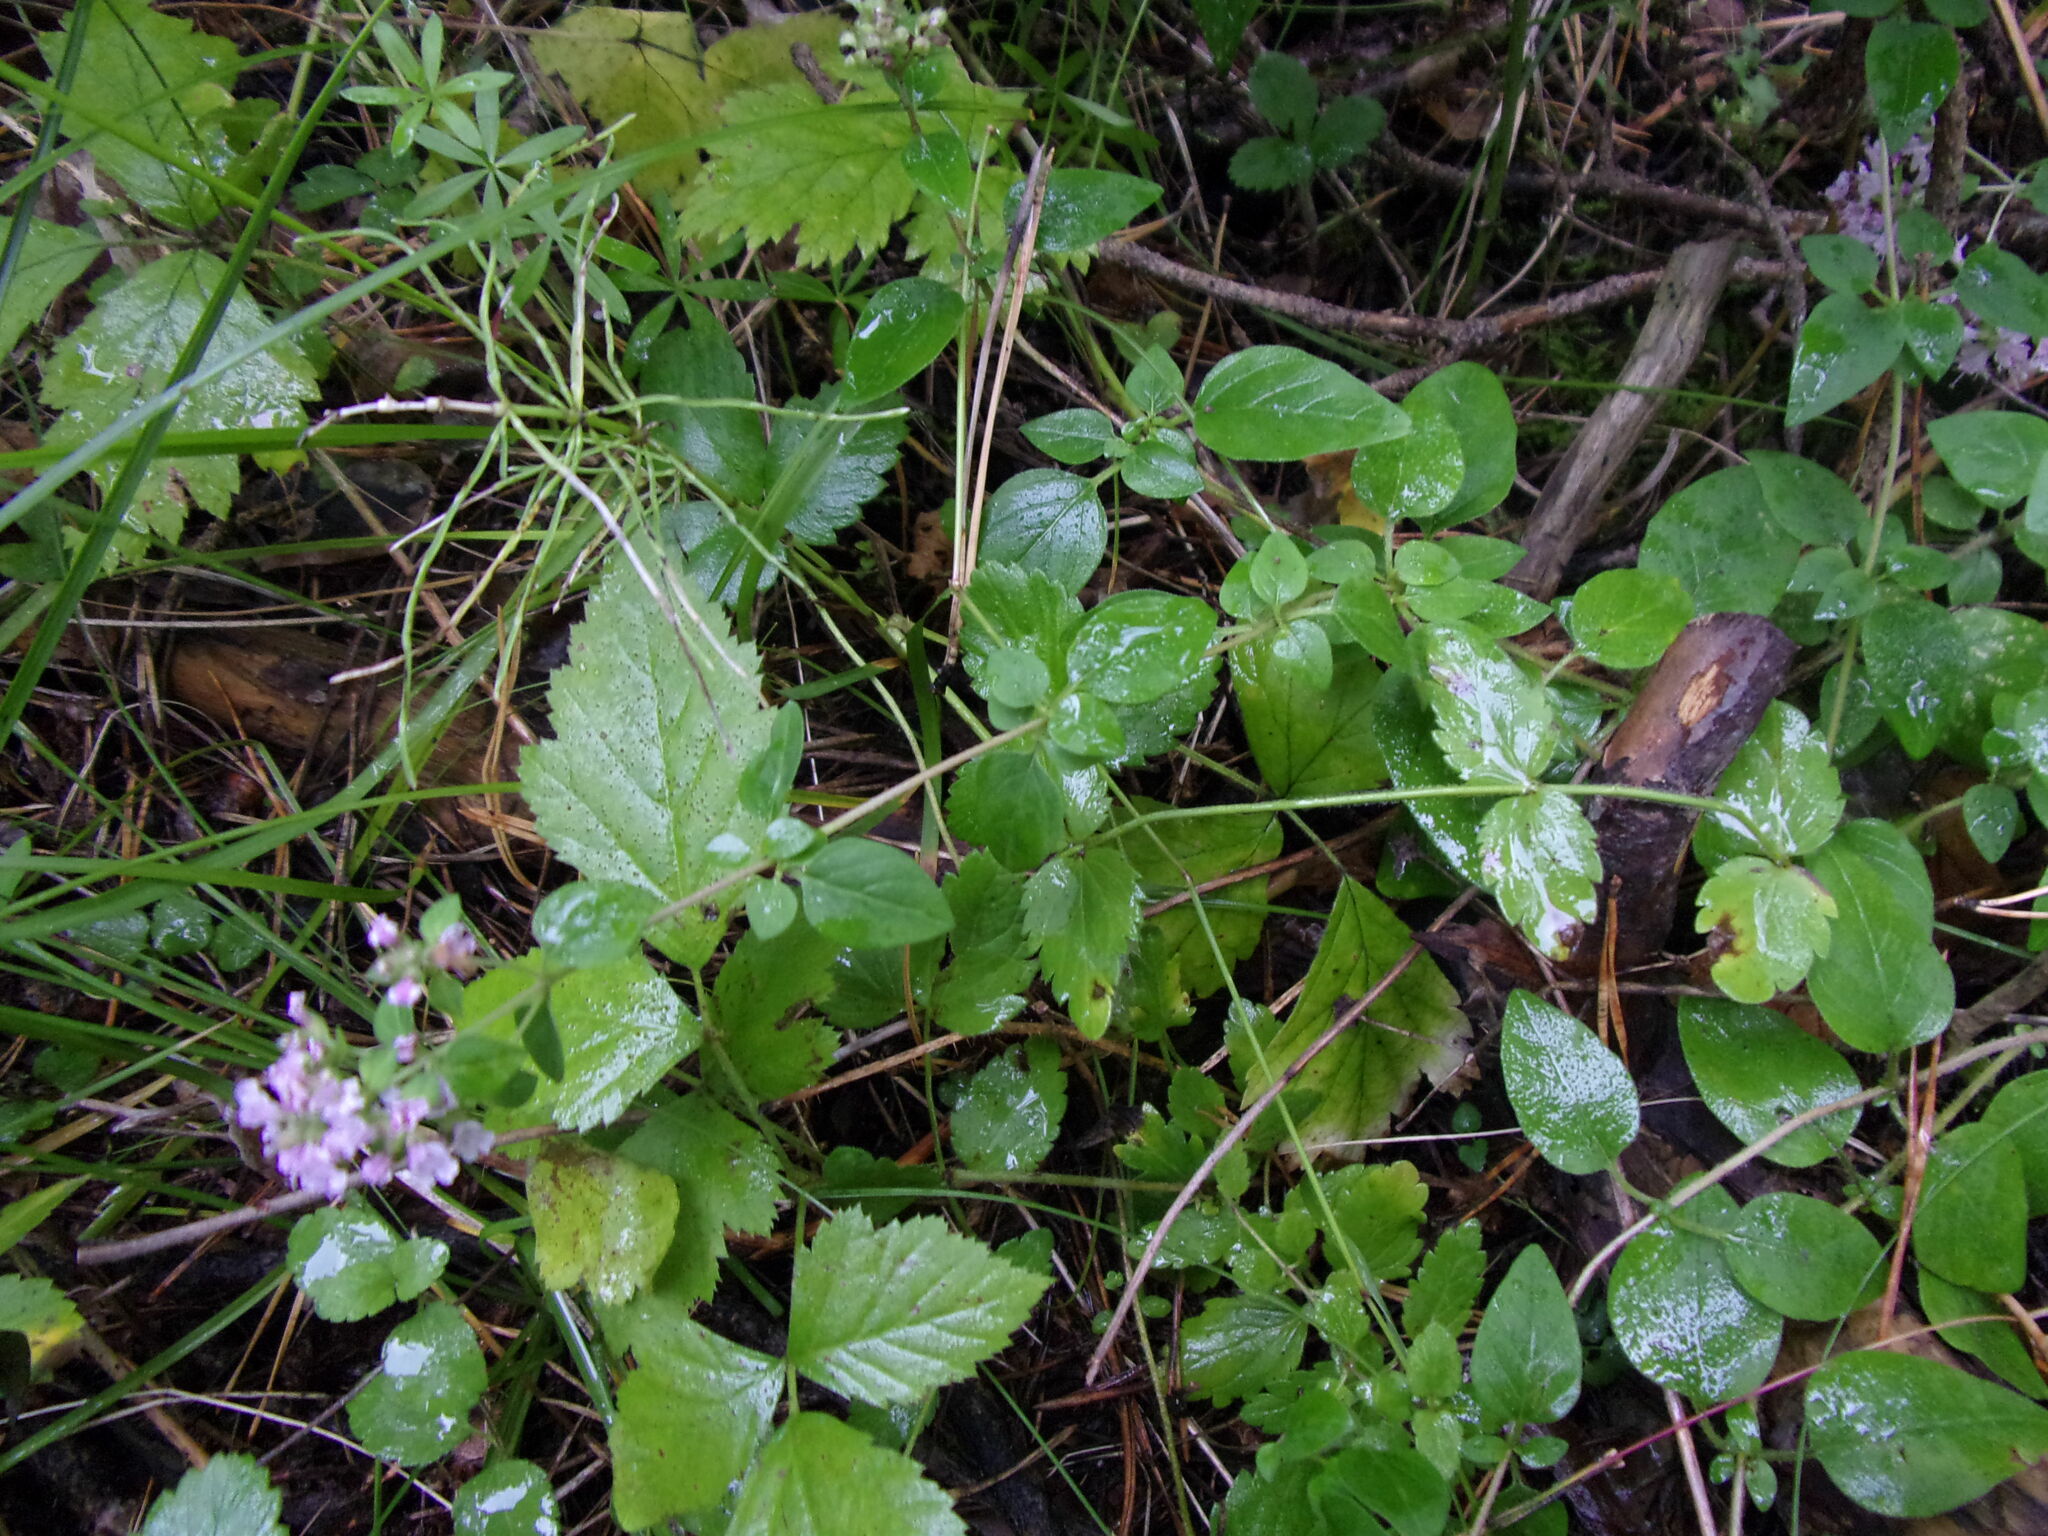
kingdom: Plantae
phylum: Tracheophyta
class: Magnoliopsida
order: Lamiales
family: Lamiaceae
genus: Origanum
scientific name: Origanum vulgare
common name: Wild marjoram
